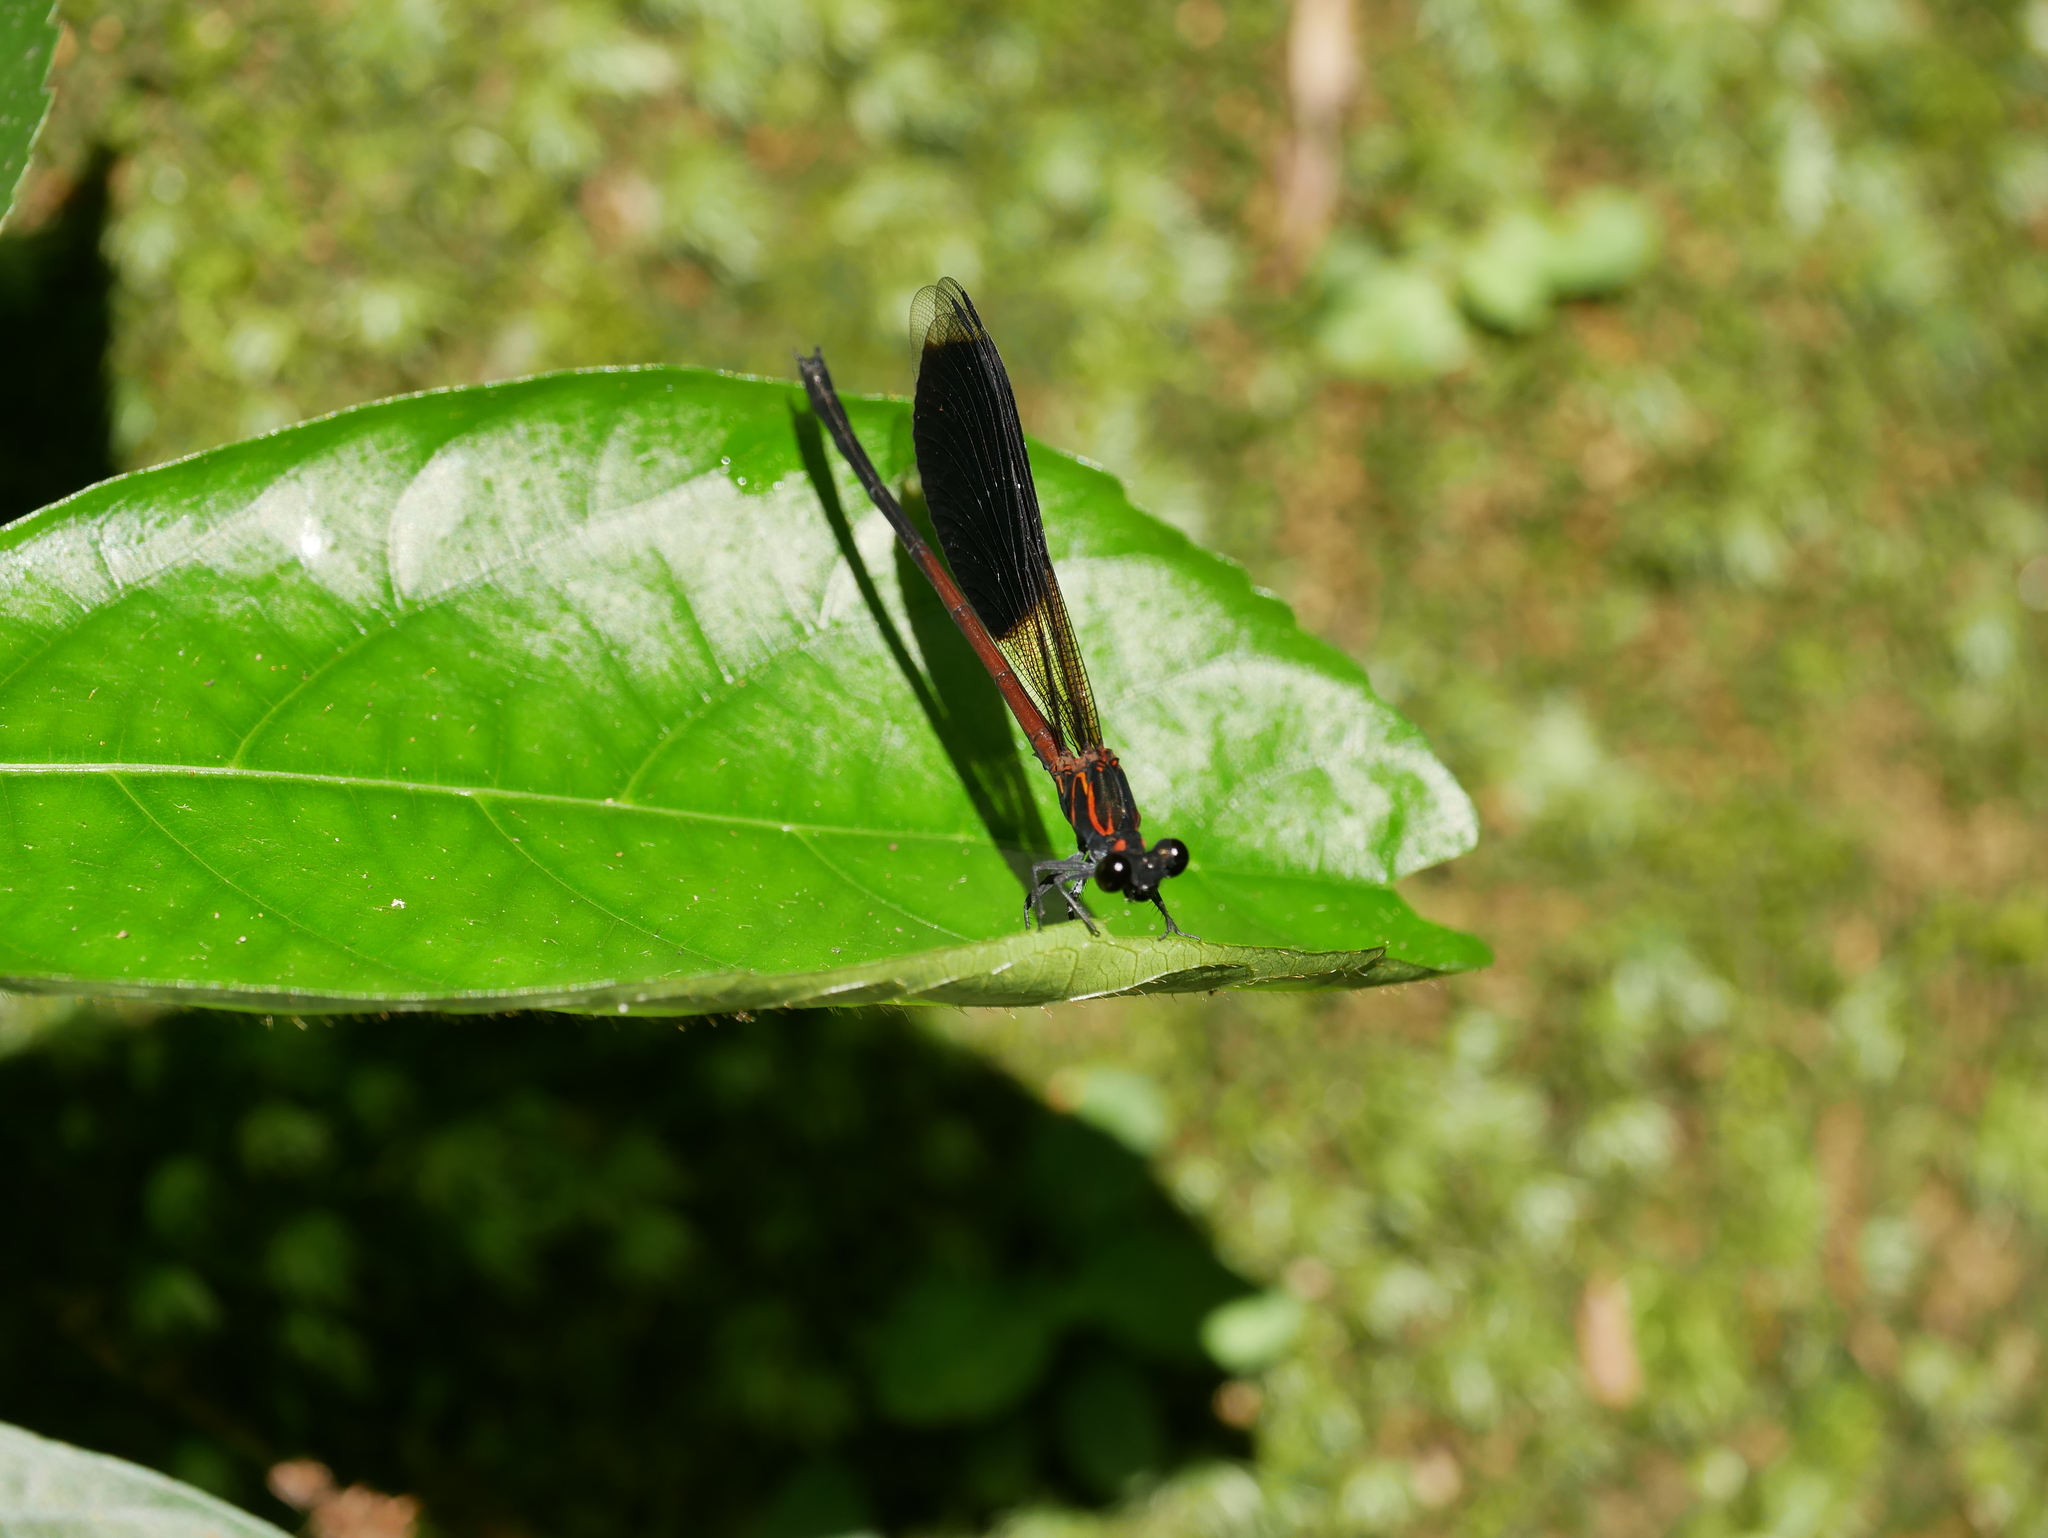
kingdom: Animalia
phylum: Arthropoda
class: Insecta
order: Odonata
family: Euphaeidae
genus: Euphaea
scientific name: Euphaea formosa
